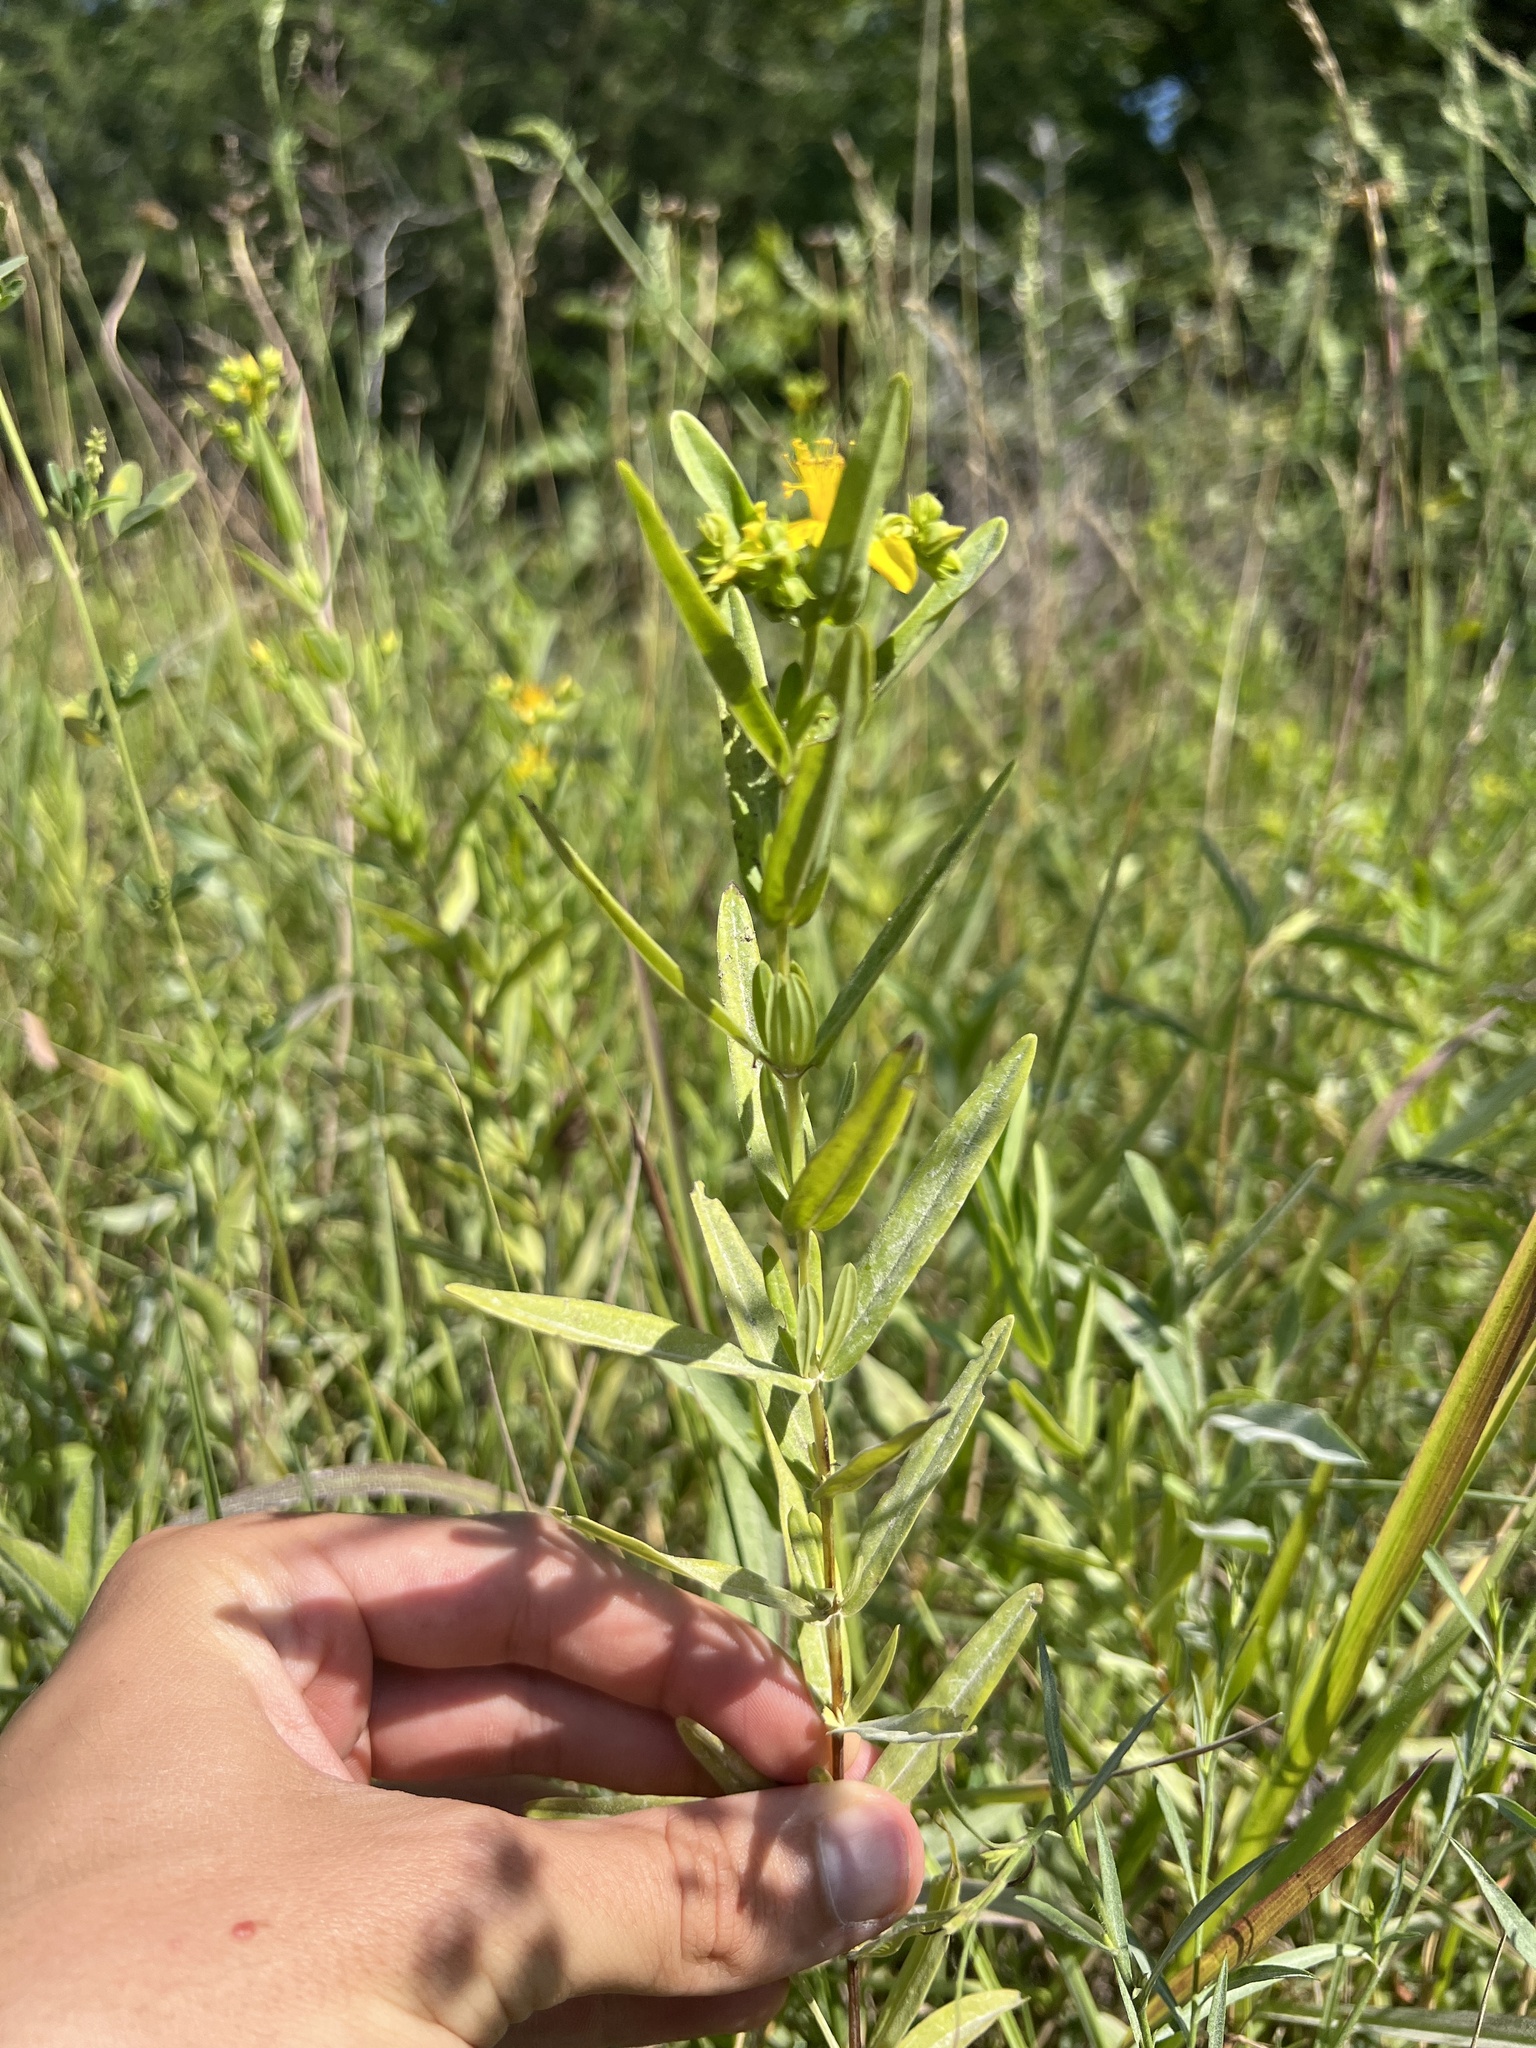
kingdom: Plantae
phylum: Tracheophyta
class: Magnoliopsida
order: Malpighiales
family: Hypericaceae
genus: Hypericum
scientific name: Hypericum sphaerocarpum
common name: Round-fruited st. john's-wort
